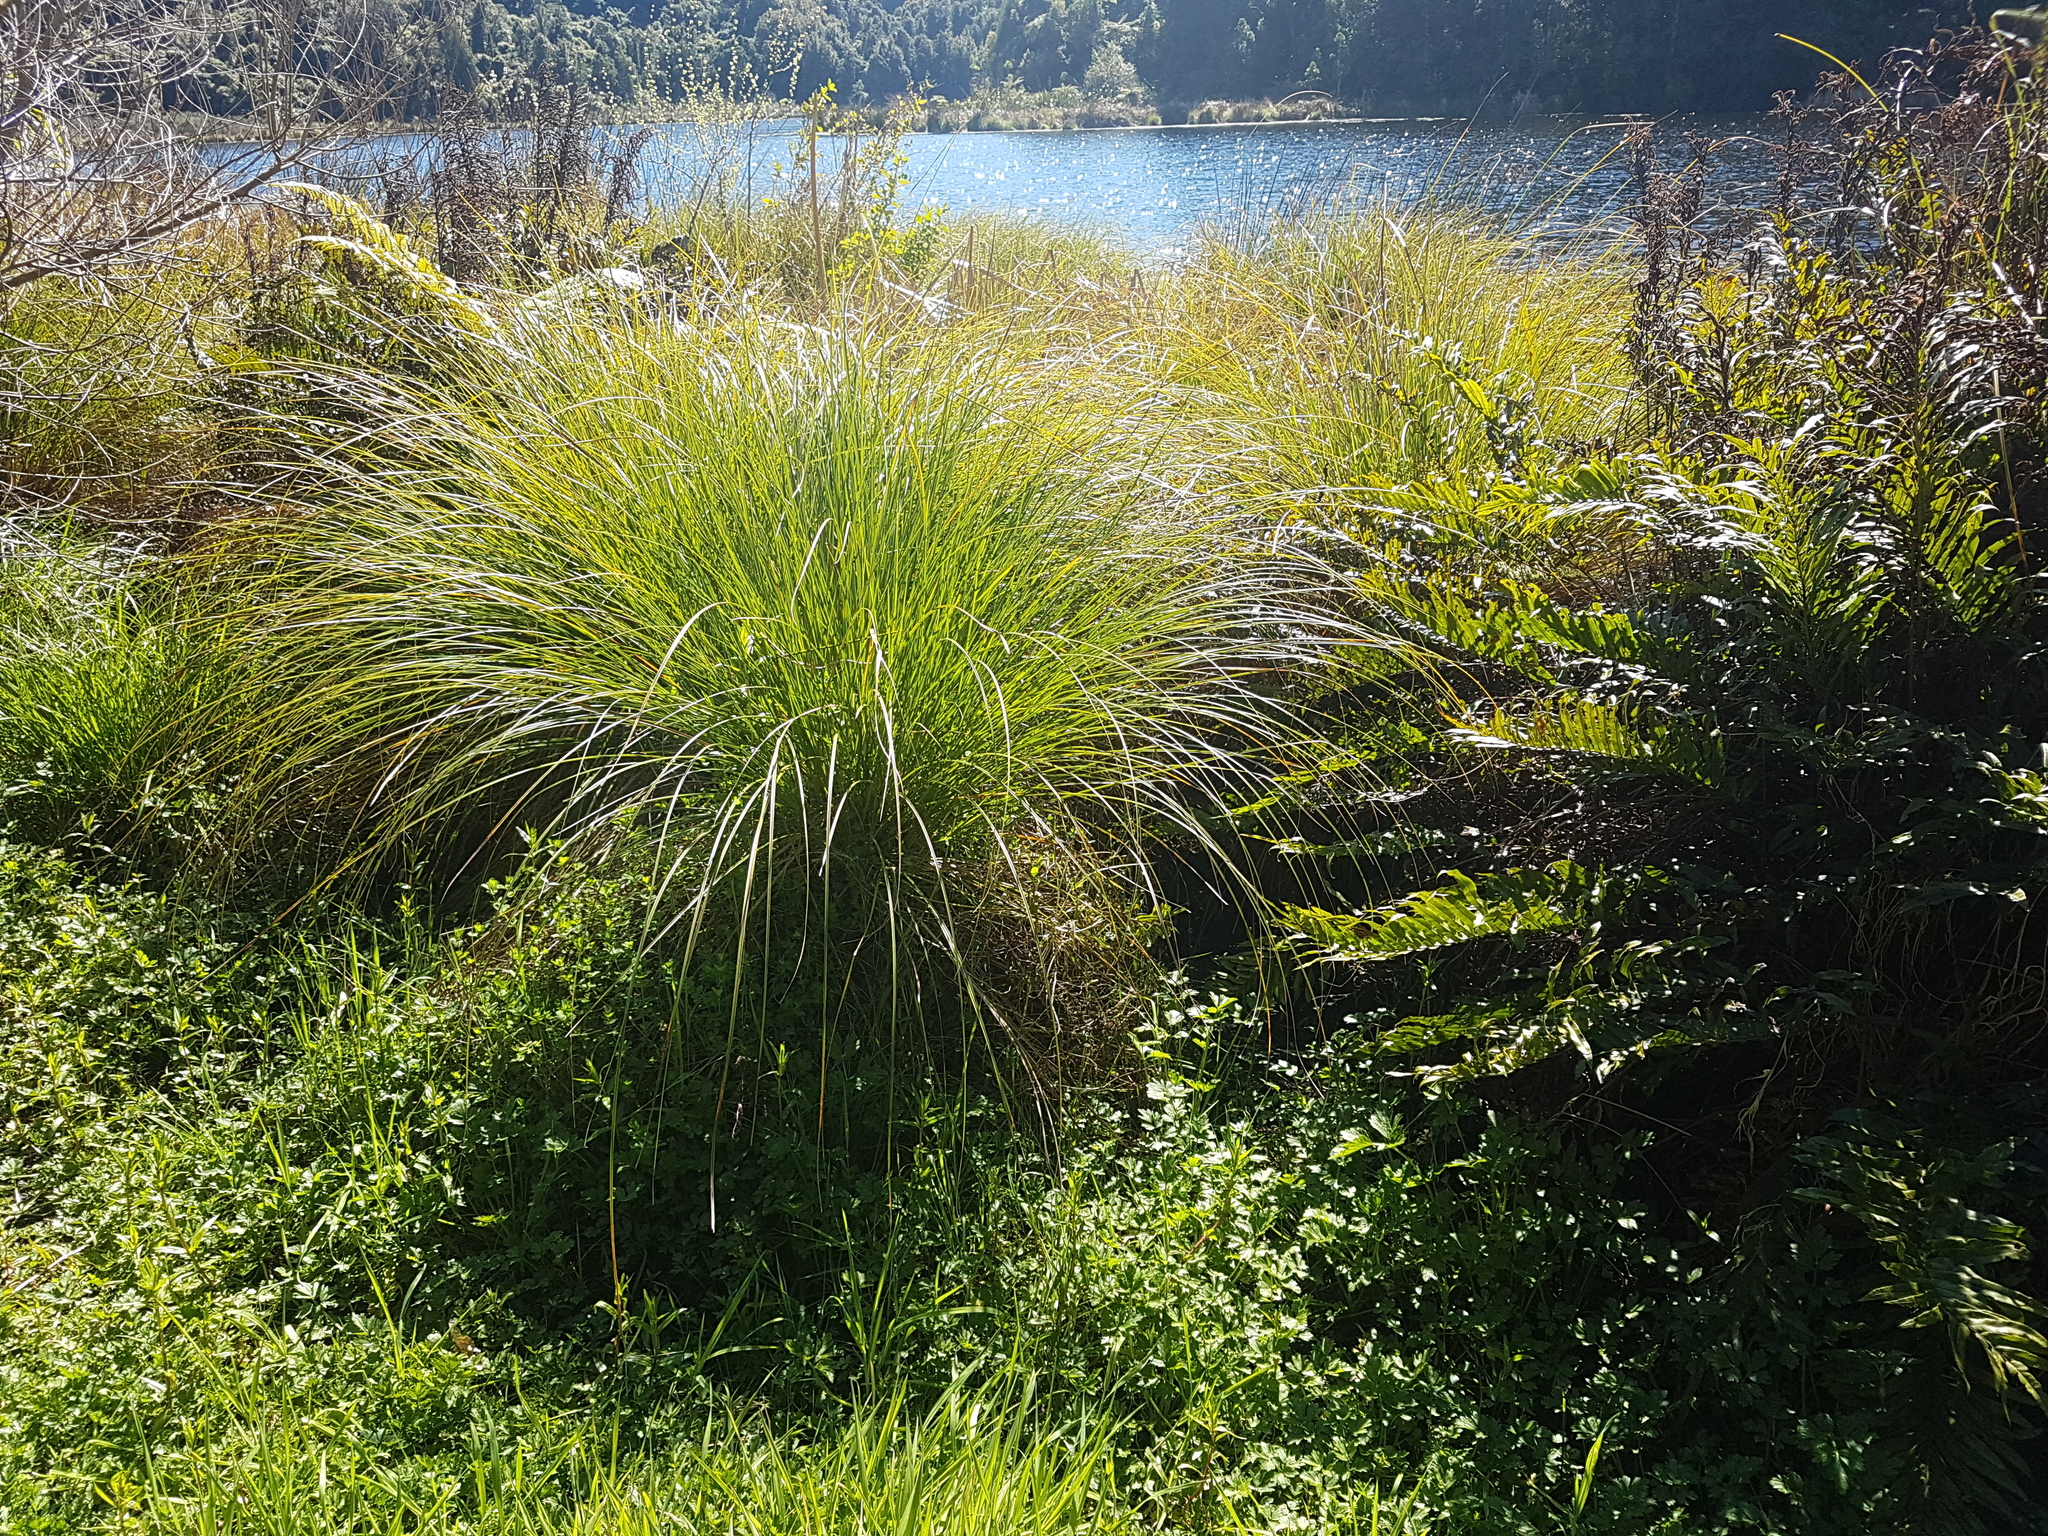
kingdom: Plantae
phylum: Tracheophyta
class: Liliopsida
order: Poales
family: Cyperaceae
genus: Carex
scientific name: Carex secta
